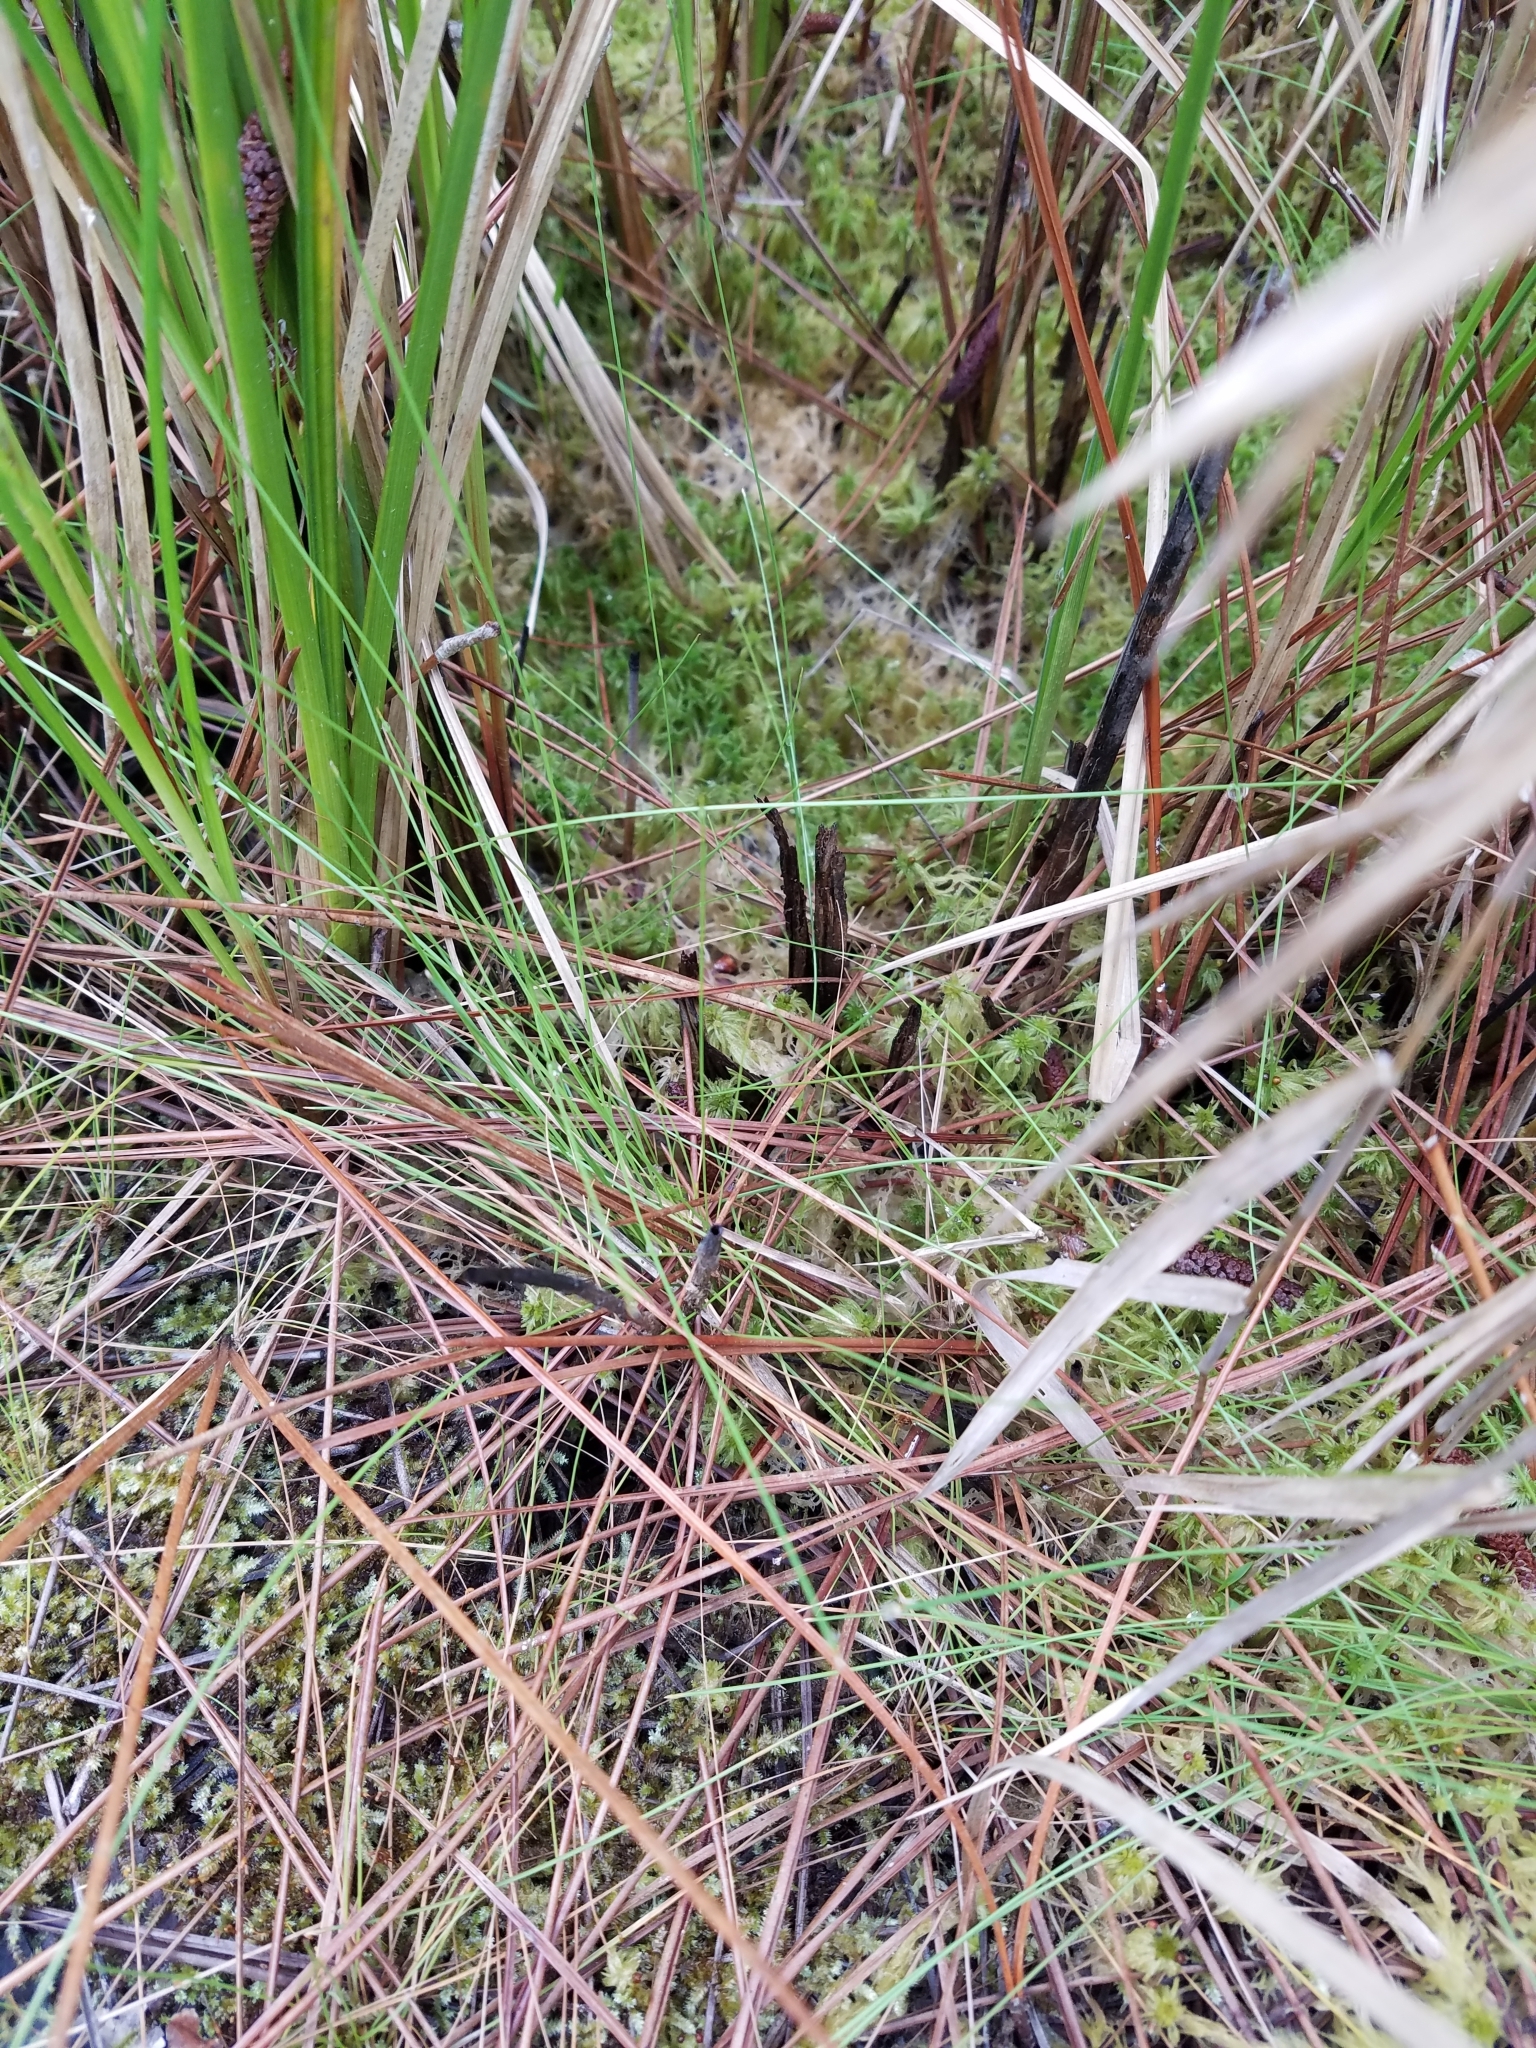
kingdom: Plantae
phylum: Tracheophyta
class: Liliopsida
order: Poales
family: Cyperaceae
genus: Eleocharis
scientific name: Eleocharis baldwinii
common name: Baldwin's spike-rush
